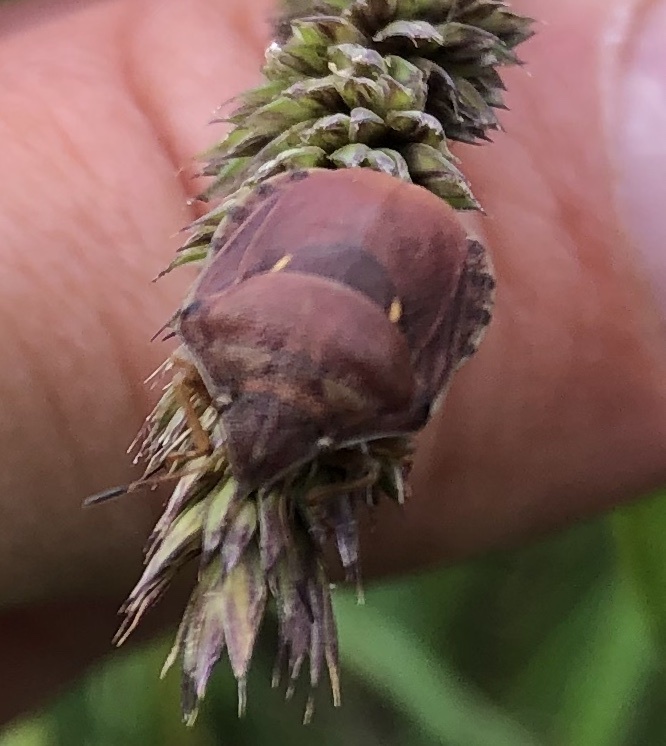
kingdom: Animalia
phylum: Arthropoda
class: Insecta
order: Hemiptera
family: Scutelleridae
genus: Eurygaster
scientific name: Eurygaster maura
